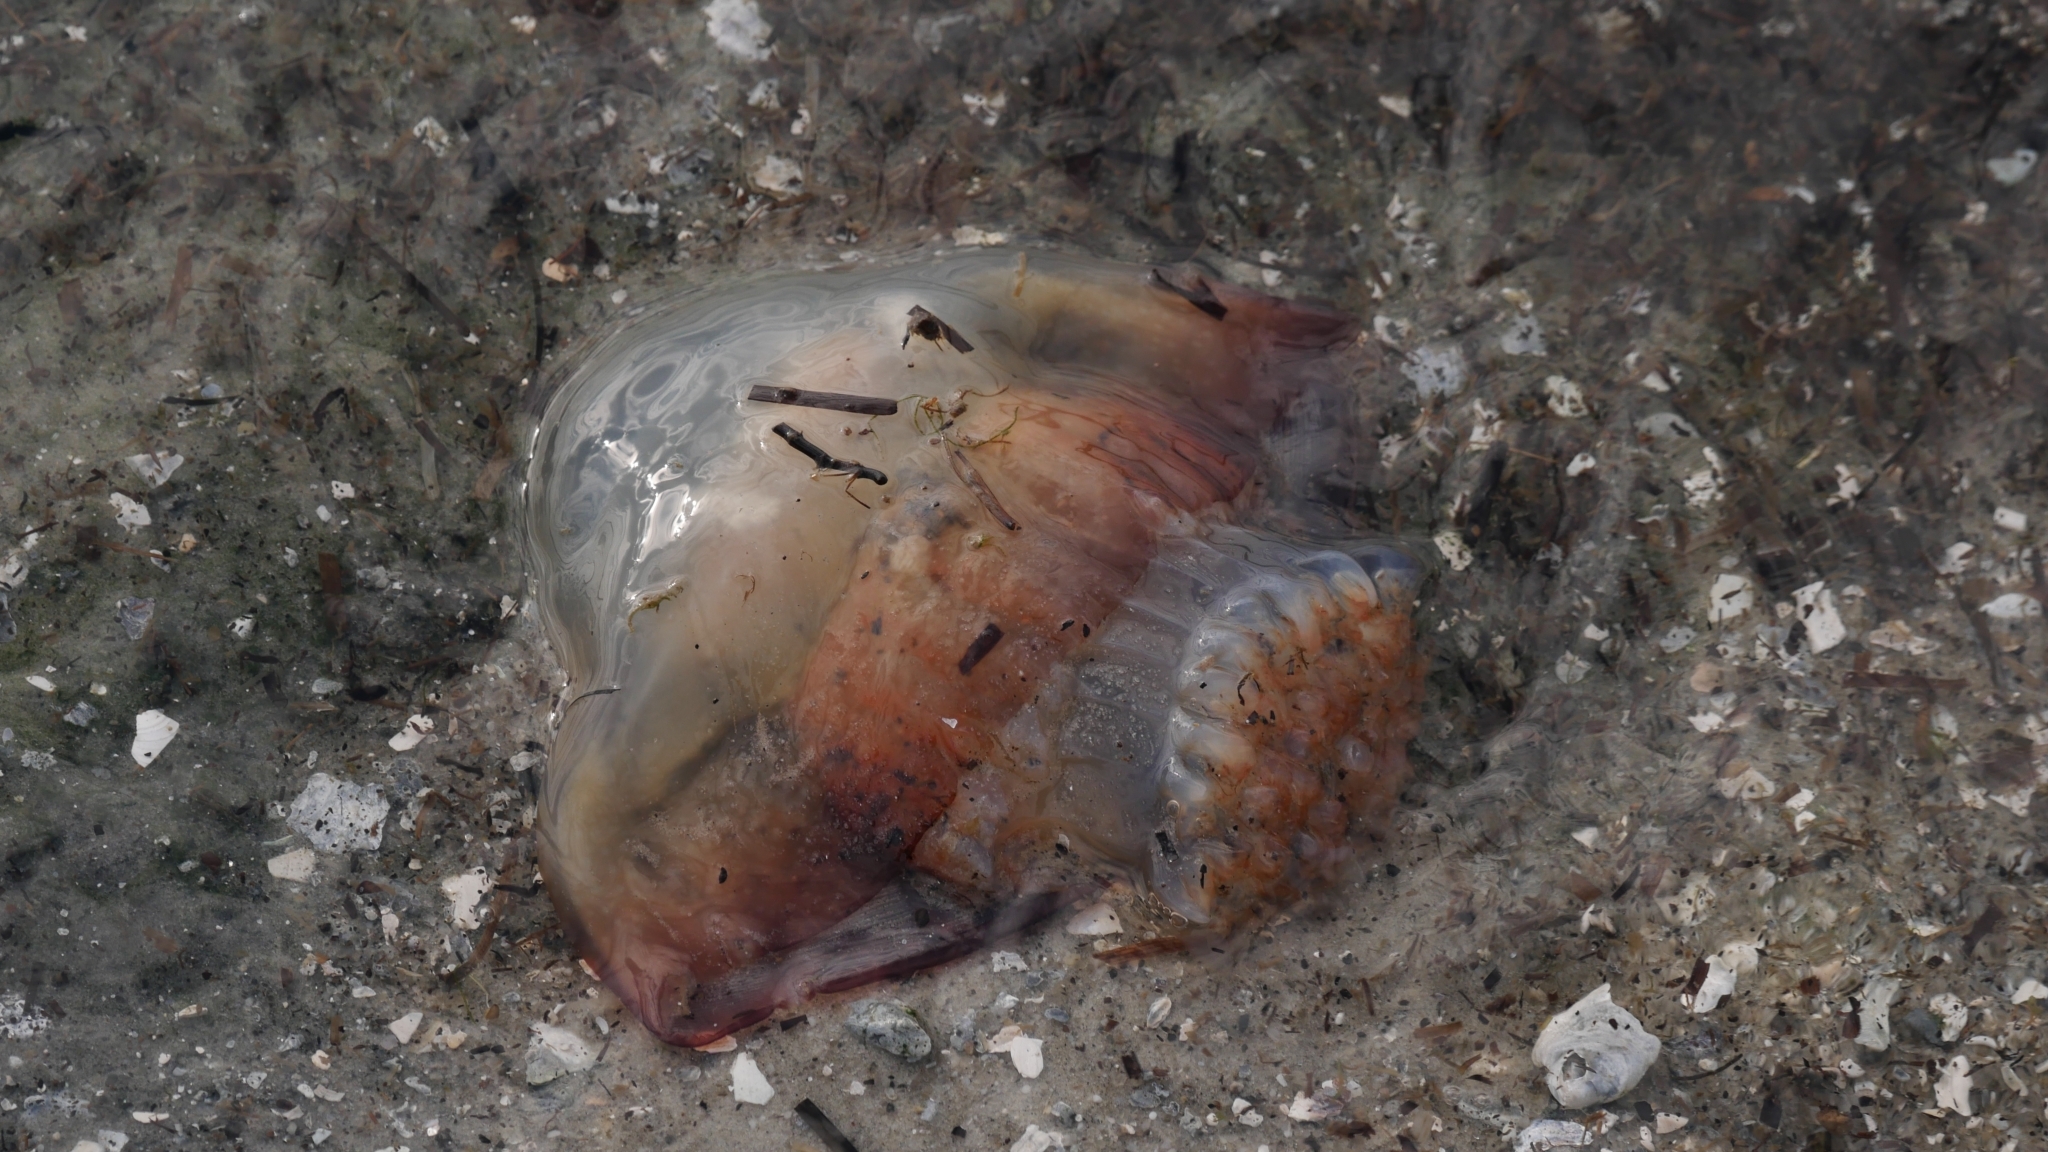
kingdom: Animalia
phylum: Cnidaria
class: Scyphozoa
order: Rhizostomeae
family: Stomolophidae
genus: Stomolophus
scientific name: Stomolophus meleagris
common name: Cabbagehead
